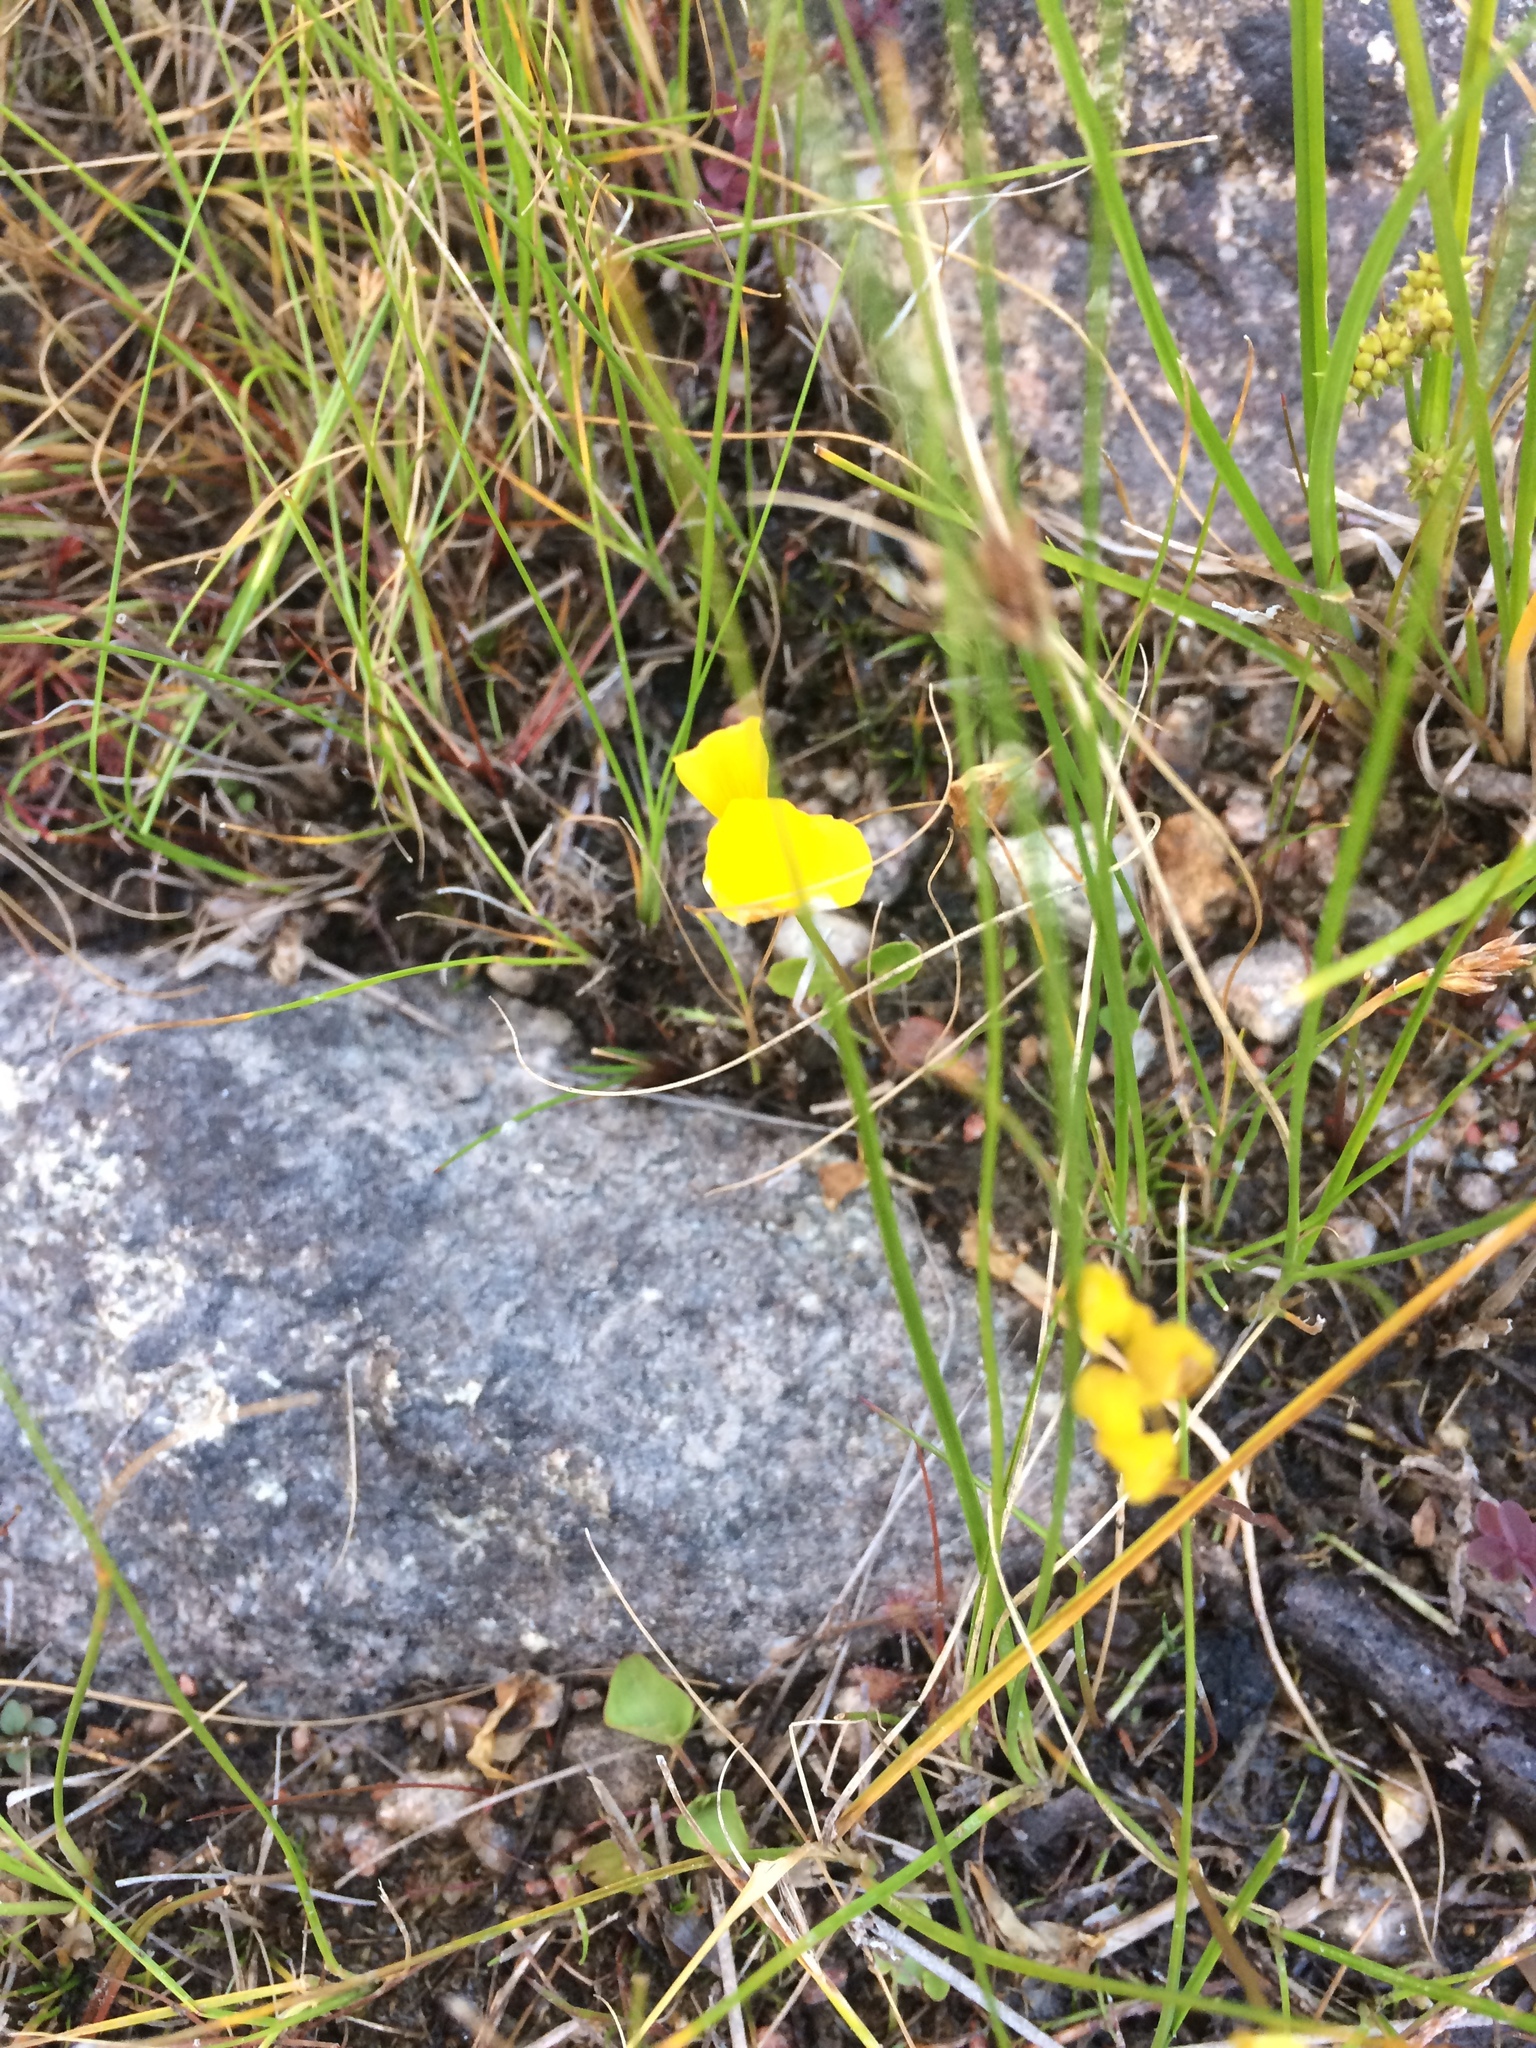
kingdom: Plantae
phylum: Tracheophyta
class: Magnoliopsida
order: Lamiales
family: Lentibulariaceae
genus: Utricularia
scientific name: Utricularia cornuta
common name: Horned bladderwort
